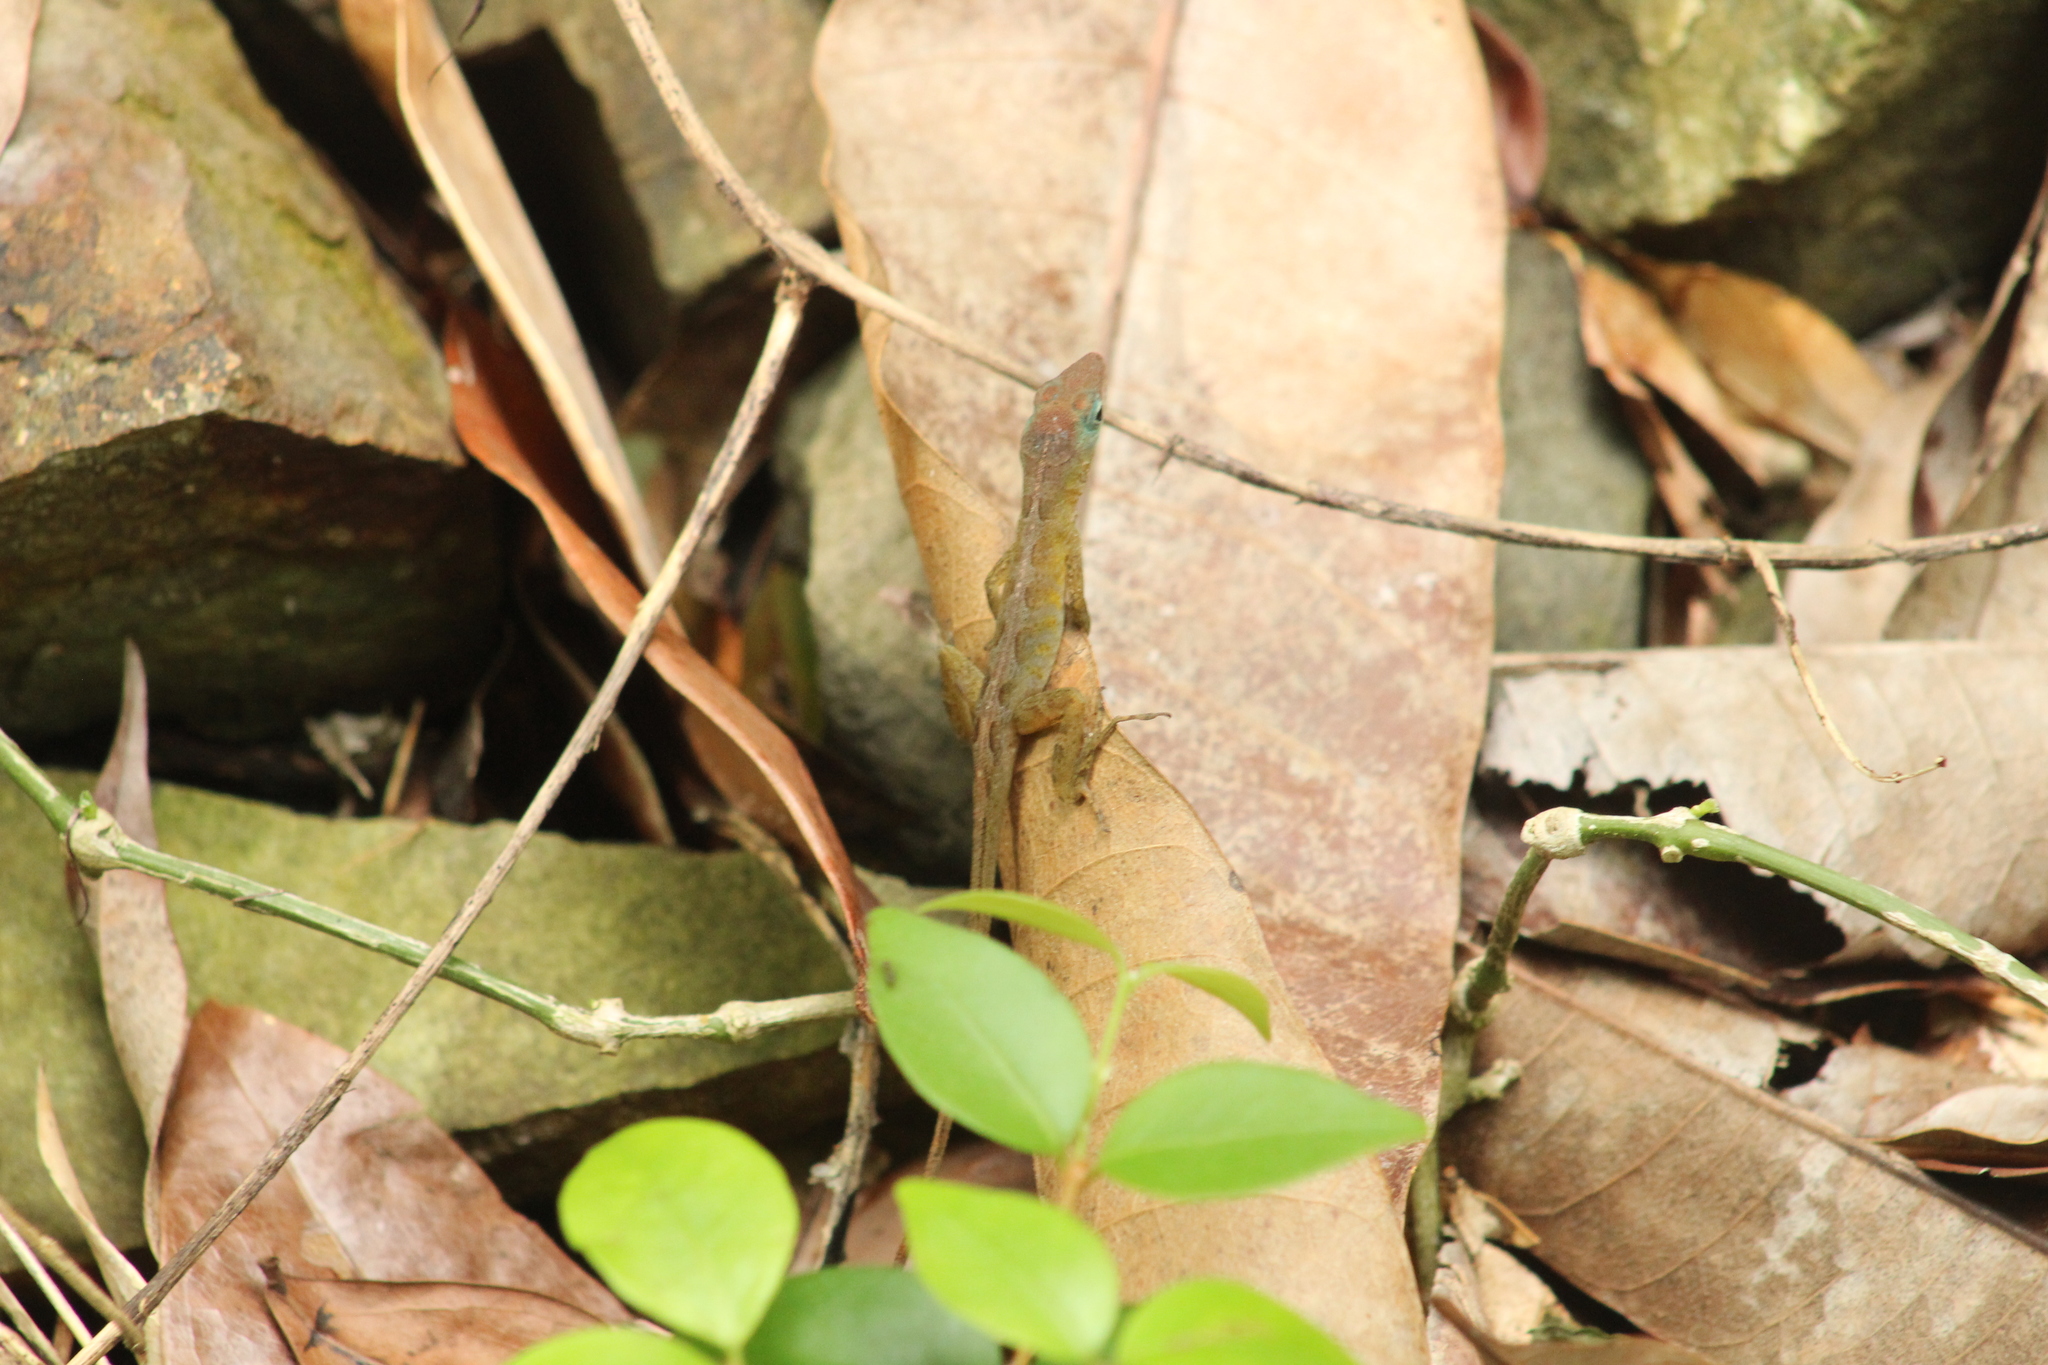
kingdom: Animalia
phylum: Chordata
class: Squamata
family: Dactyloidae
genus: Anolis
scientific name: Anolis pogus
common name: Anguilla bank bush anole
